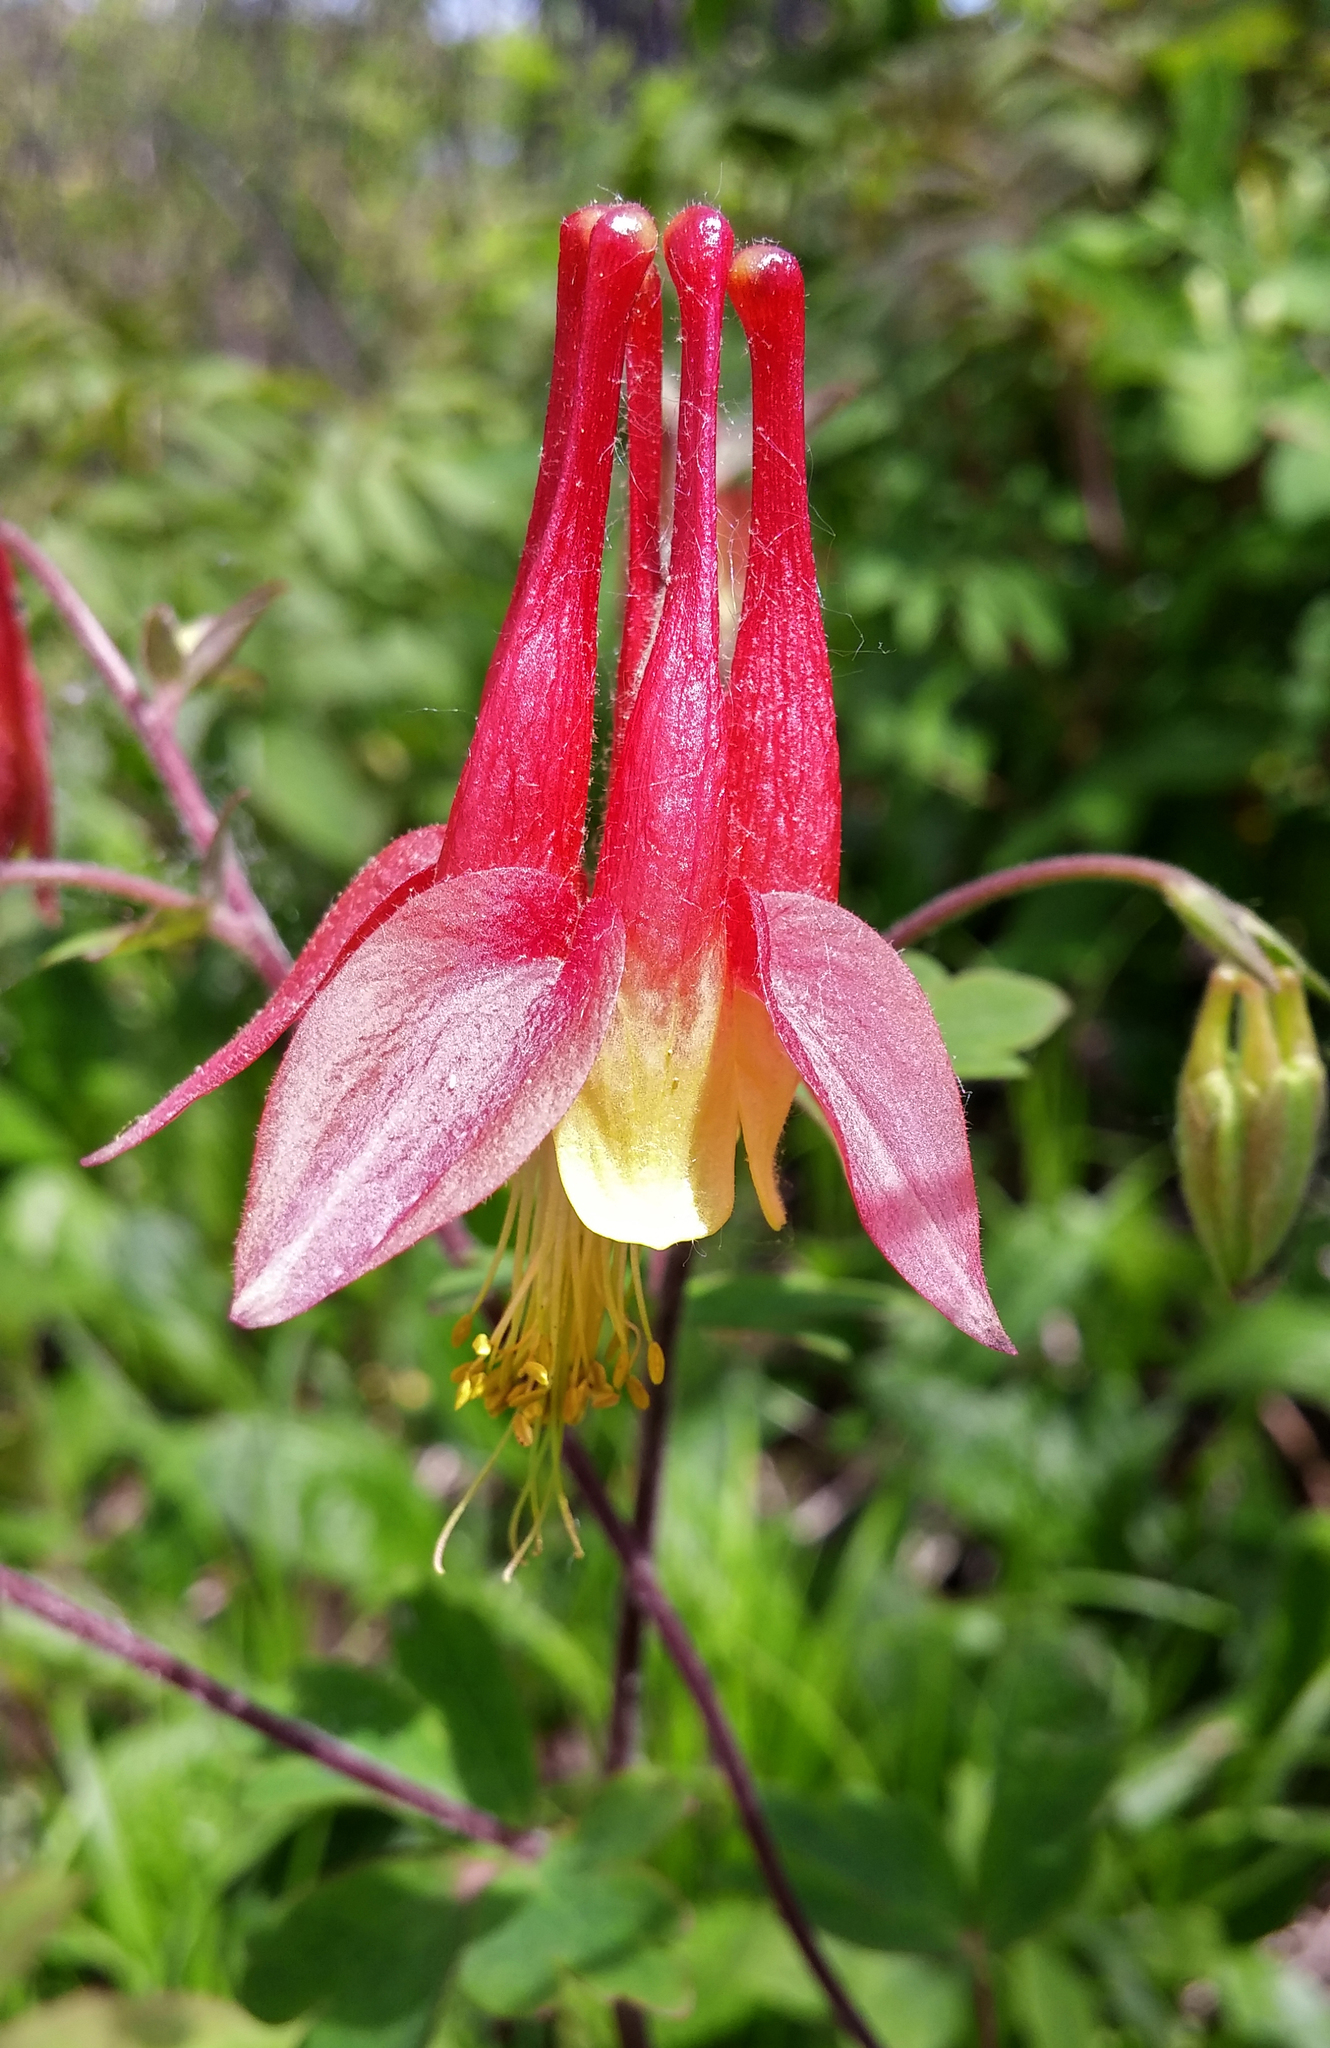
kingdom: Plantae
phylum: Tracheophyta
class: Magnoliopsida
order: Ranunculales
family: Ranunculaceae
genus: Aquilegia
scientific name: Aquilegia canadensis
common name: American columbine
